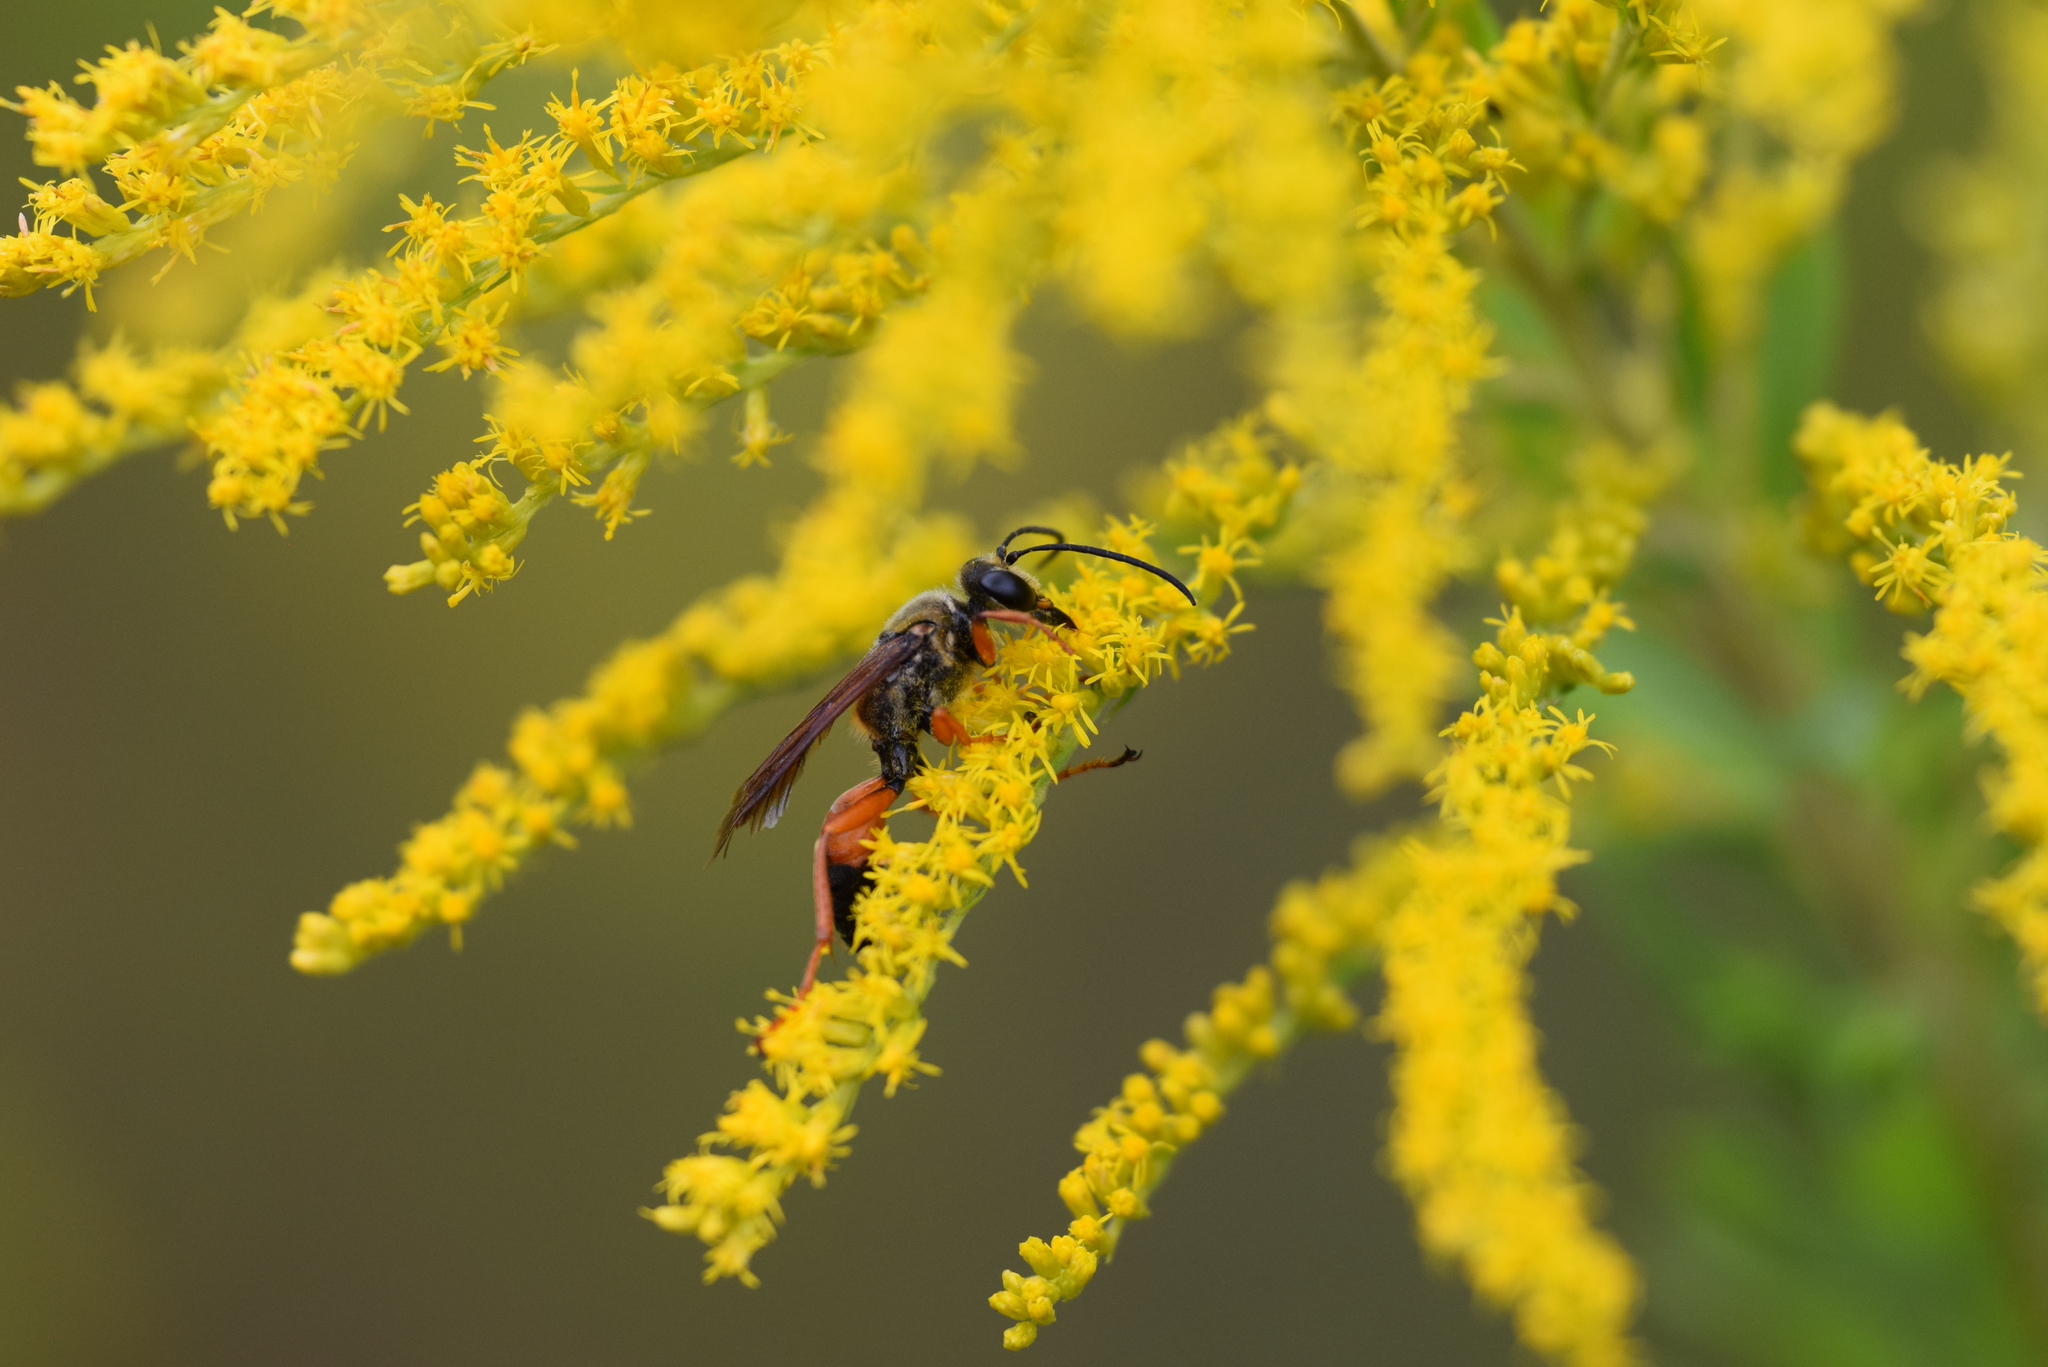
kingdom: Animalia
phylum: Arthropoda
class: Insecta
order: Hymenoptera
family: Sphecidae
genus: Sphex
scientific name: Sphex ichneumoneus
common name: Great golden digger wasp
